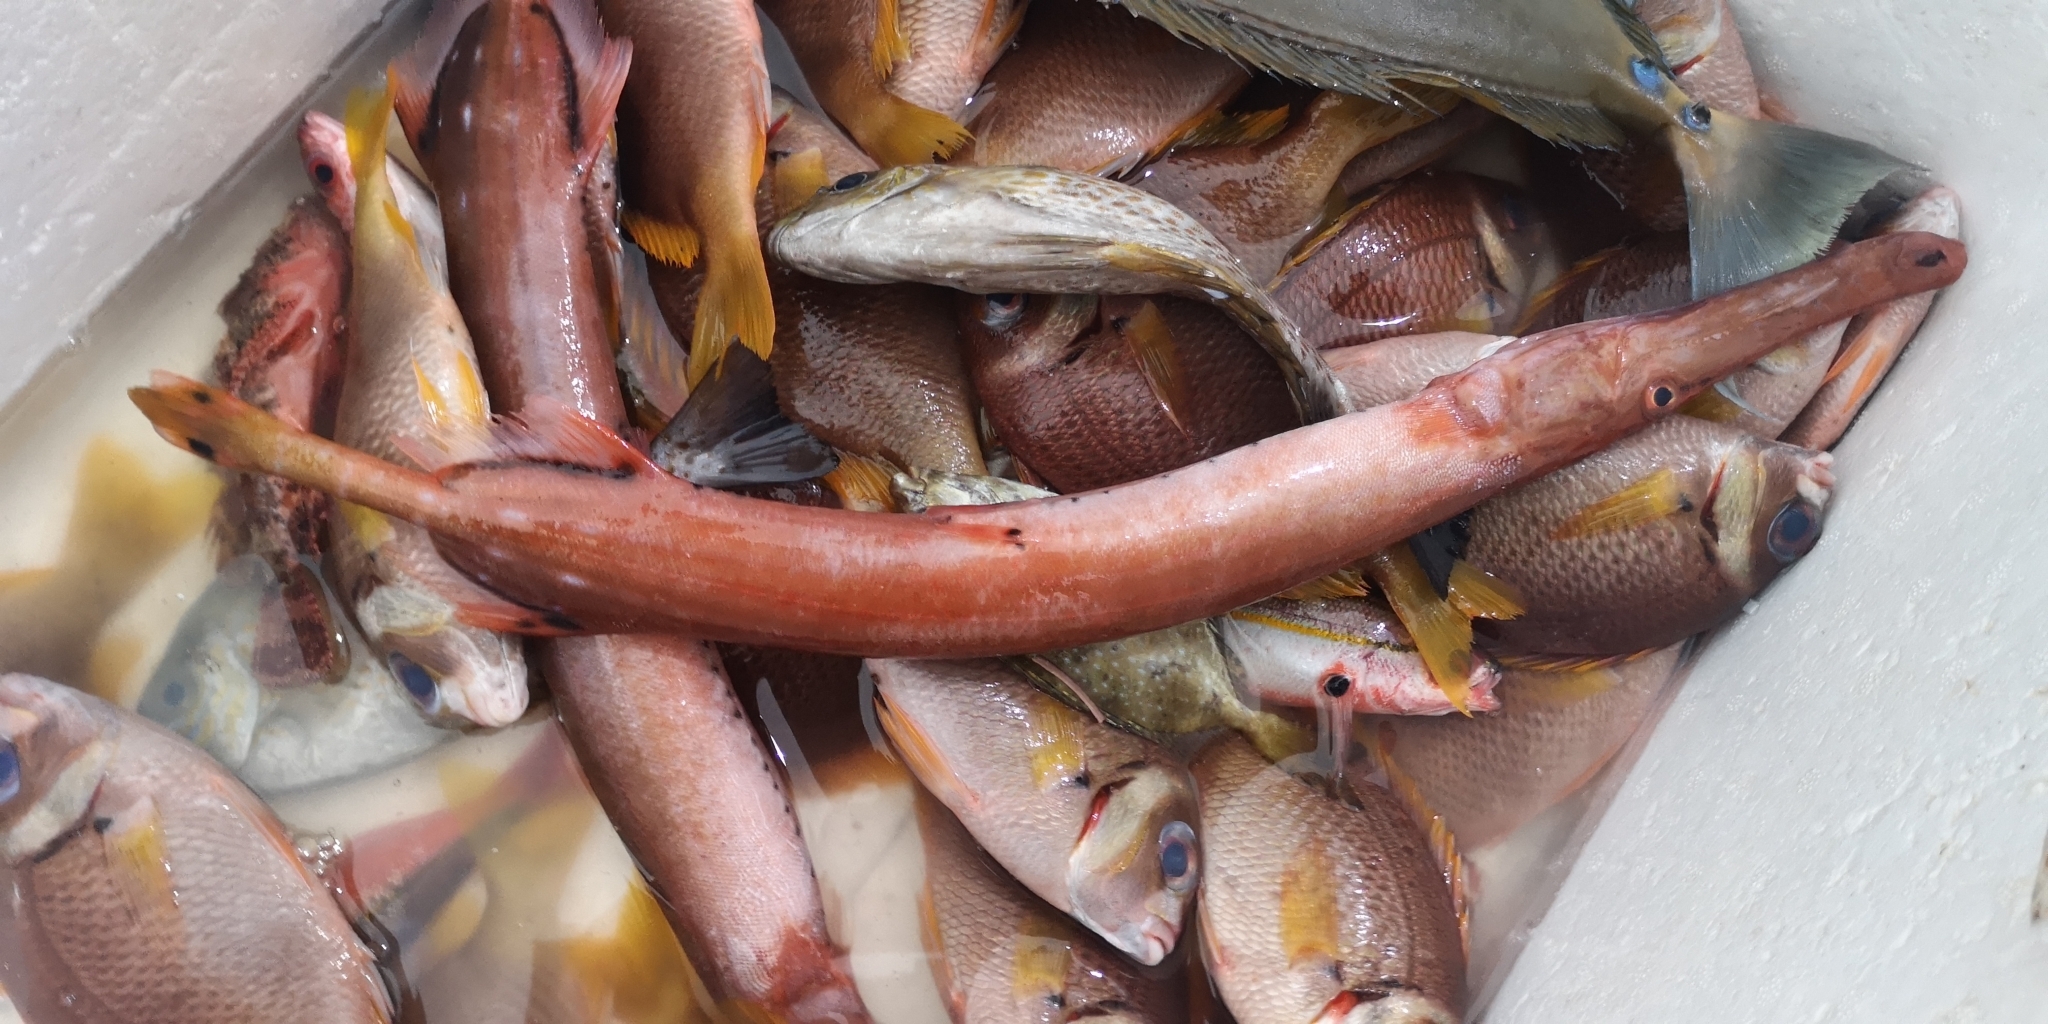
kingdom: Animalia
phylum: Chordata
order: Syngnathiformes
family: Aulostomidae
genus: Aulostomus
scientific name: Aulostomus chinensis
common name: Chinese trumpetfish
